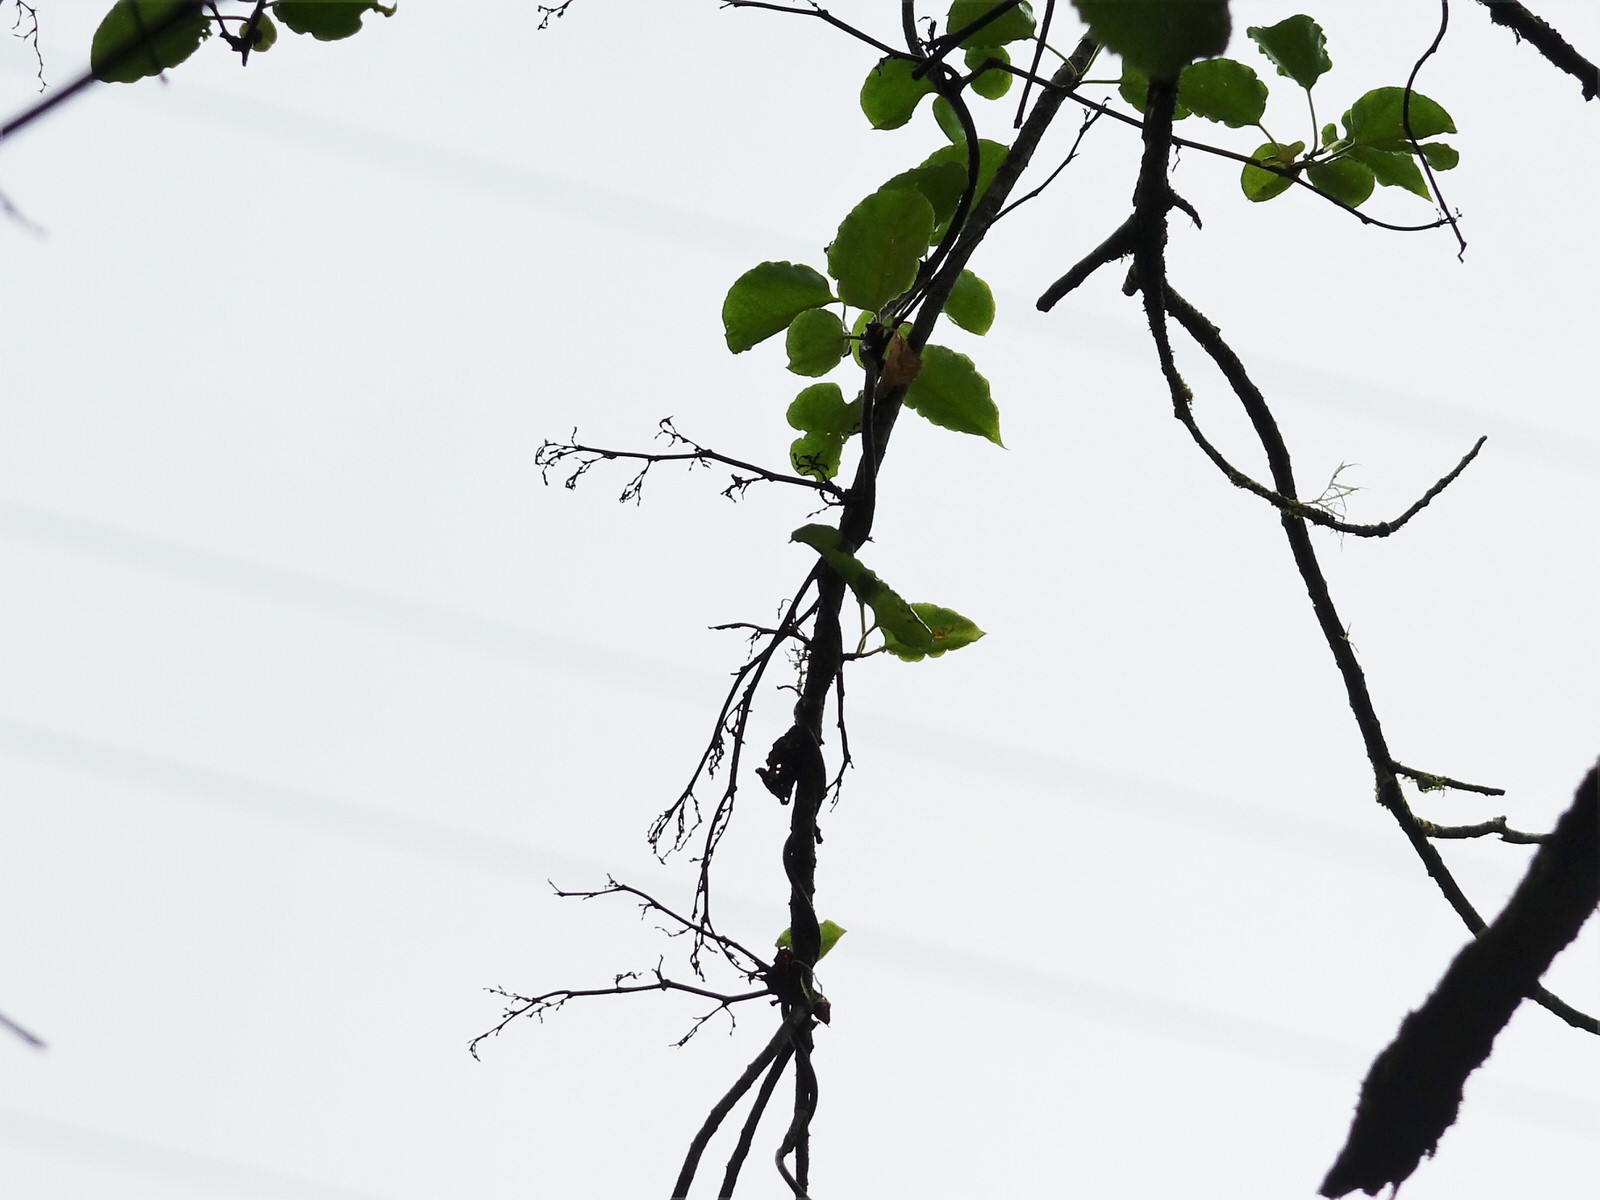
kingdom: Plantae
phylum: Tracheophyta
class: Magnoliopsida
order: Caryophyllales
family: Polygonaceae
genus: Muehlenbeckia
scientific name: Muehlenbeckia australis
